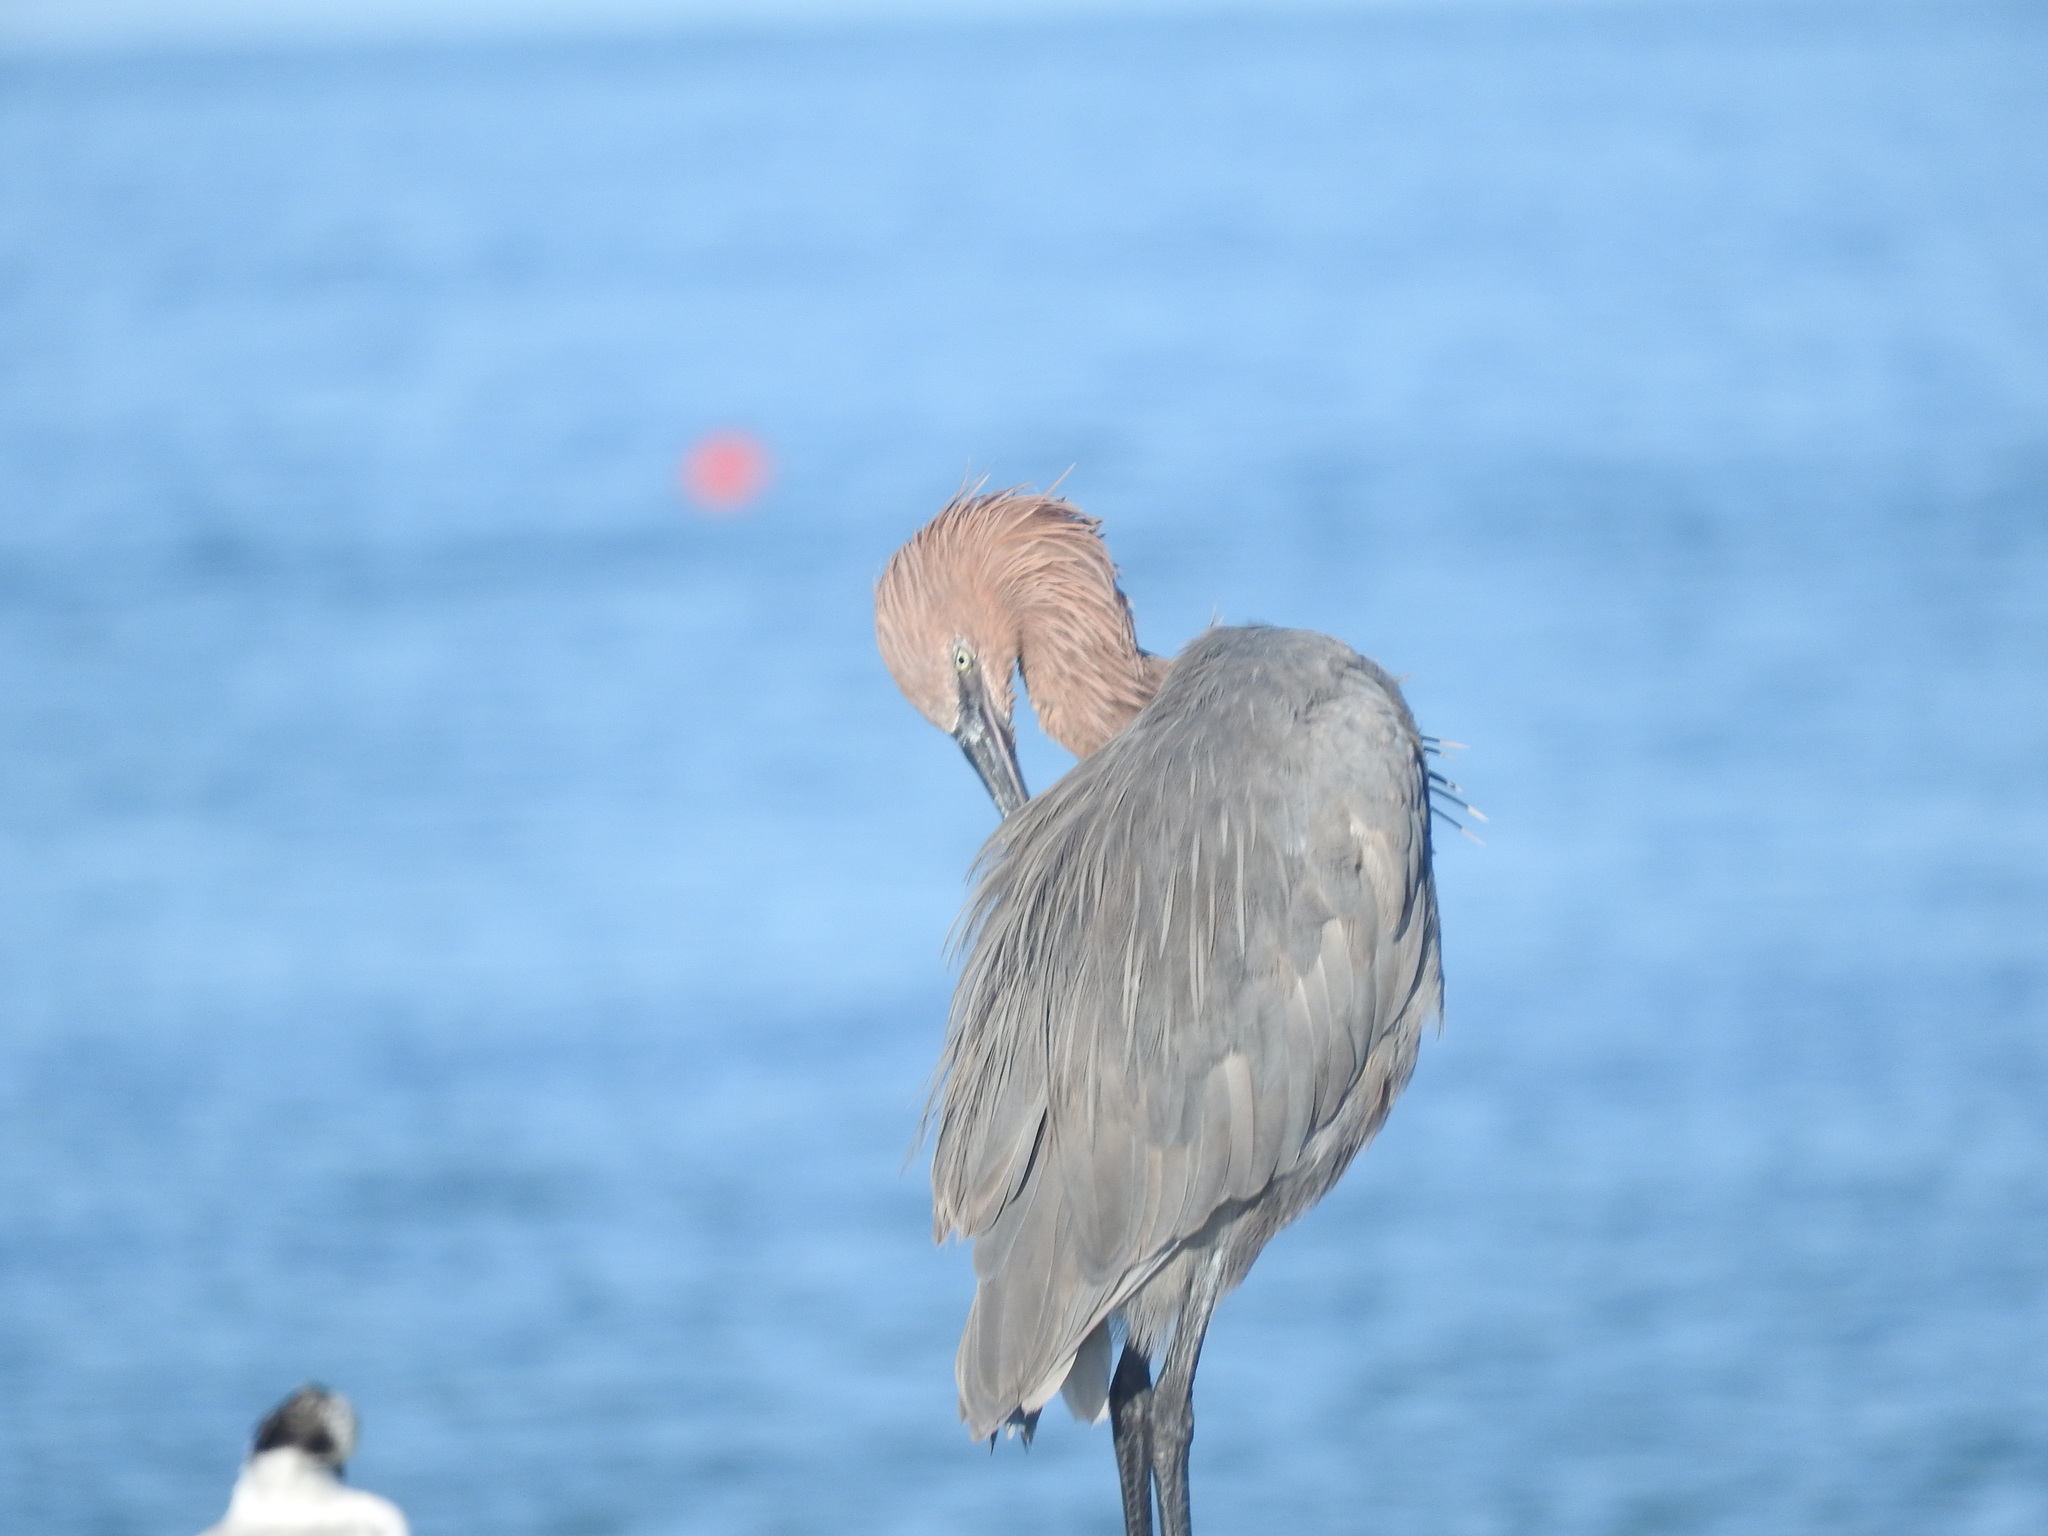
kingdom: Animalia
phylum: Chordata
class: Aves
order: Pelecaniformes
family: Ardeidae
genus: Egretta
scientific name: Egretta rufescens
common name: Reddish egret
